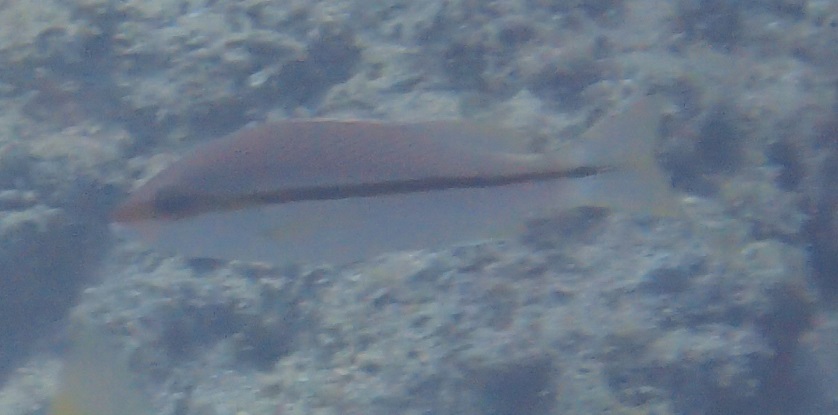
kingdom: Animalia
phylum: Chordata
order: Perciformes
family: Lutjanidae
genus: Lutjanus
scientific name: Lutjanus vitta
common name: Brownstripe red snapper
